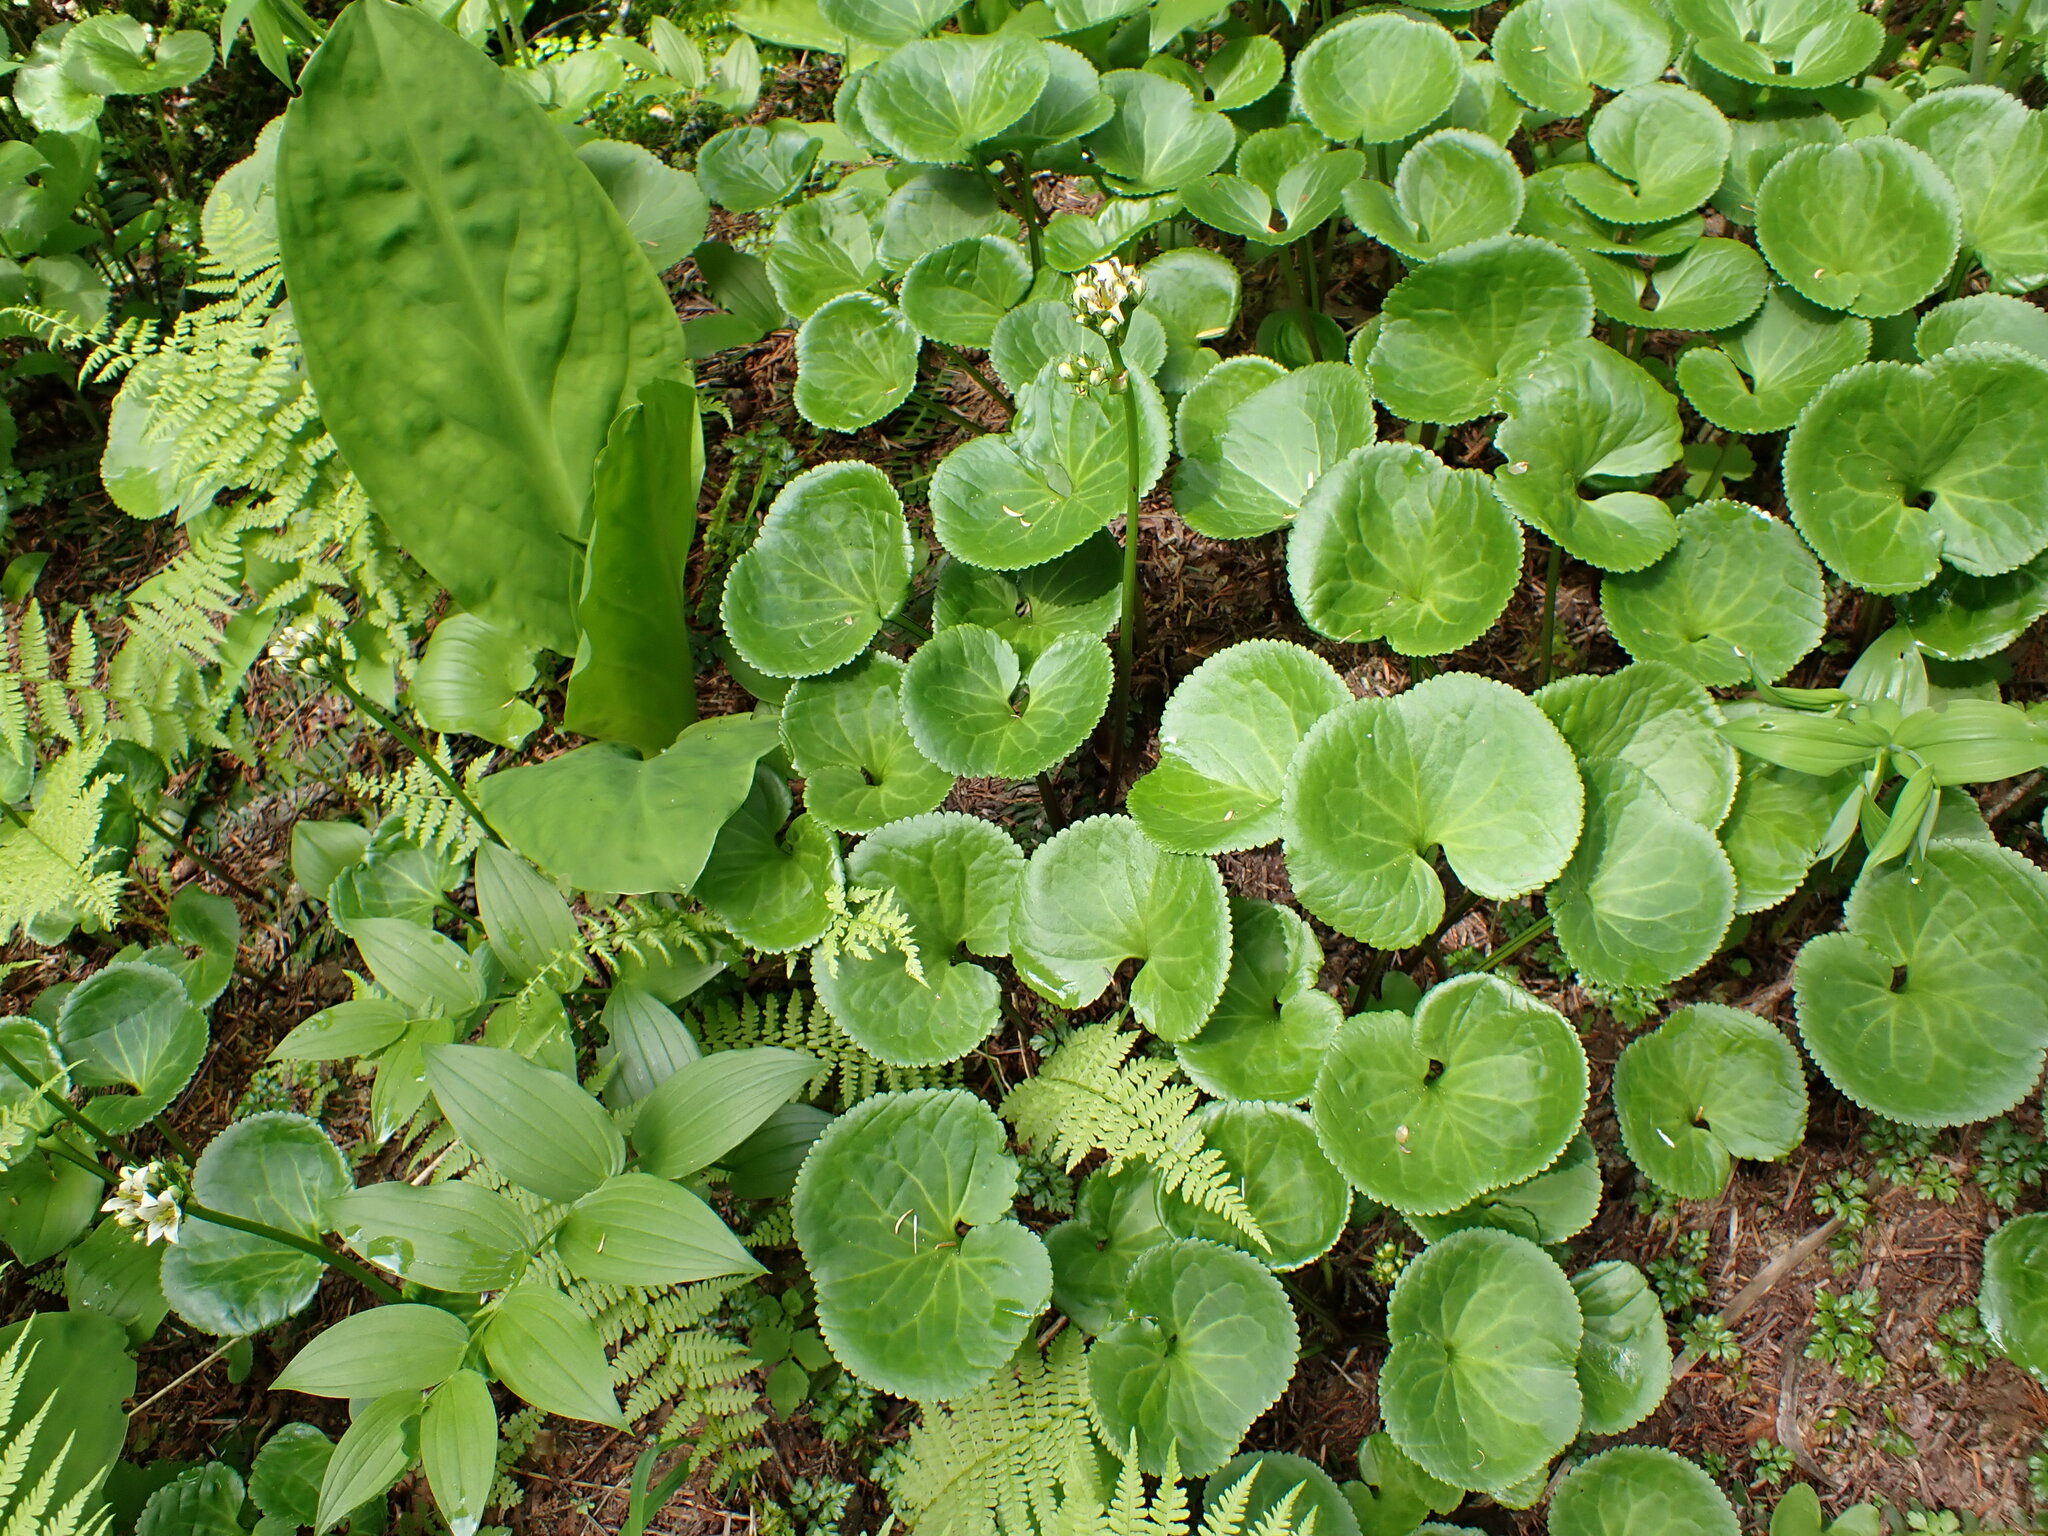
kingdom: Plantae
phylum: Tracheophyta
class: Magnoliopsida
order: Asterales
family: Menyanthaceae
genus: Nephrophyllidium
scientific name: Nephrophyllidium crista-galli
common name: Deer-cabbage
